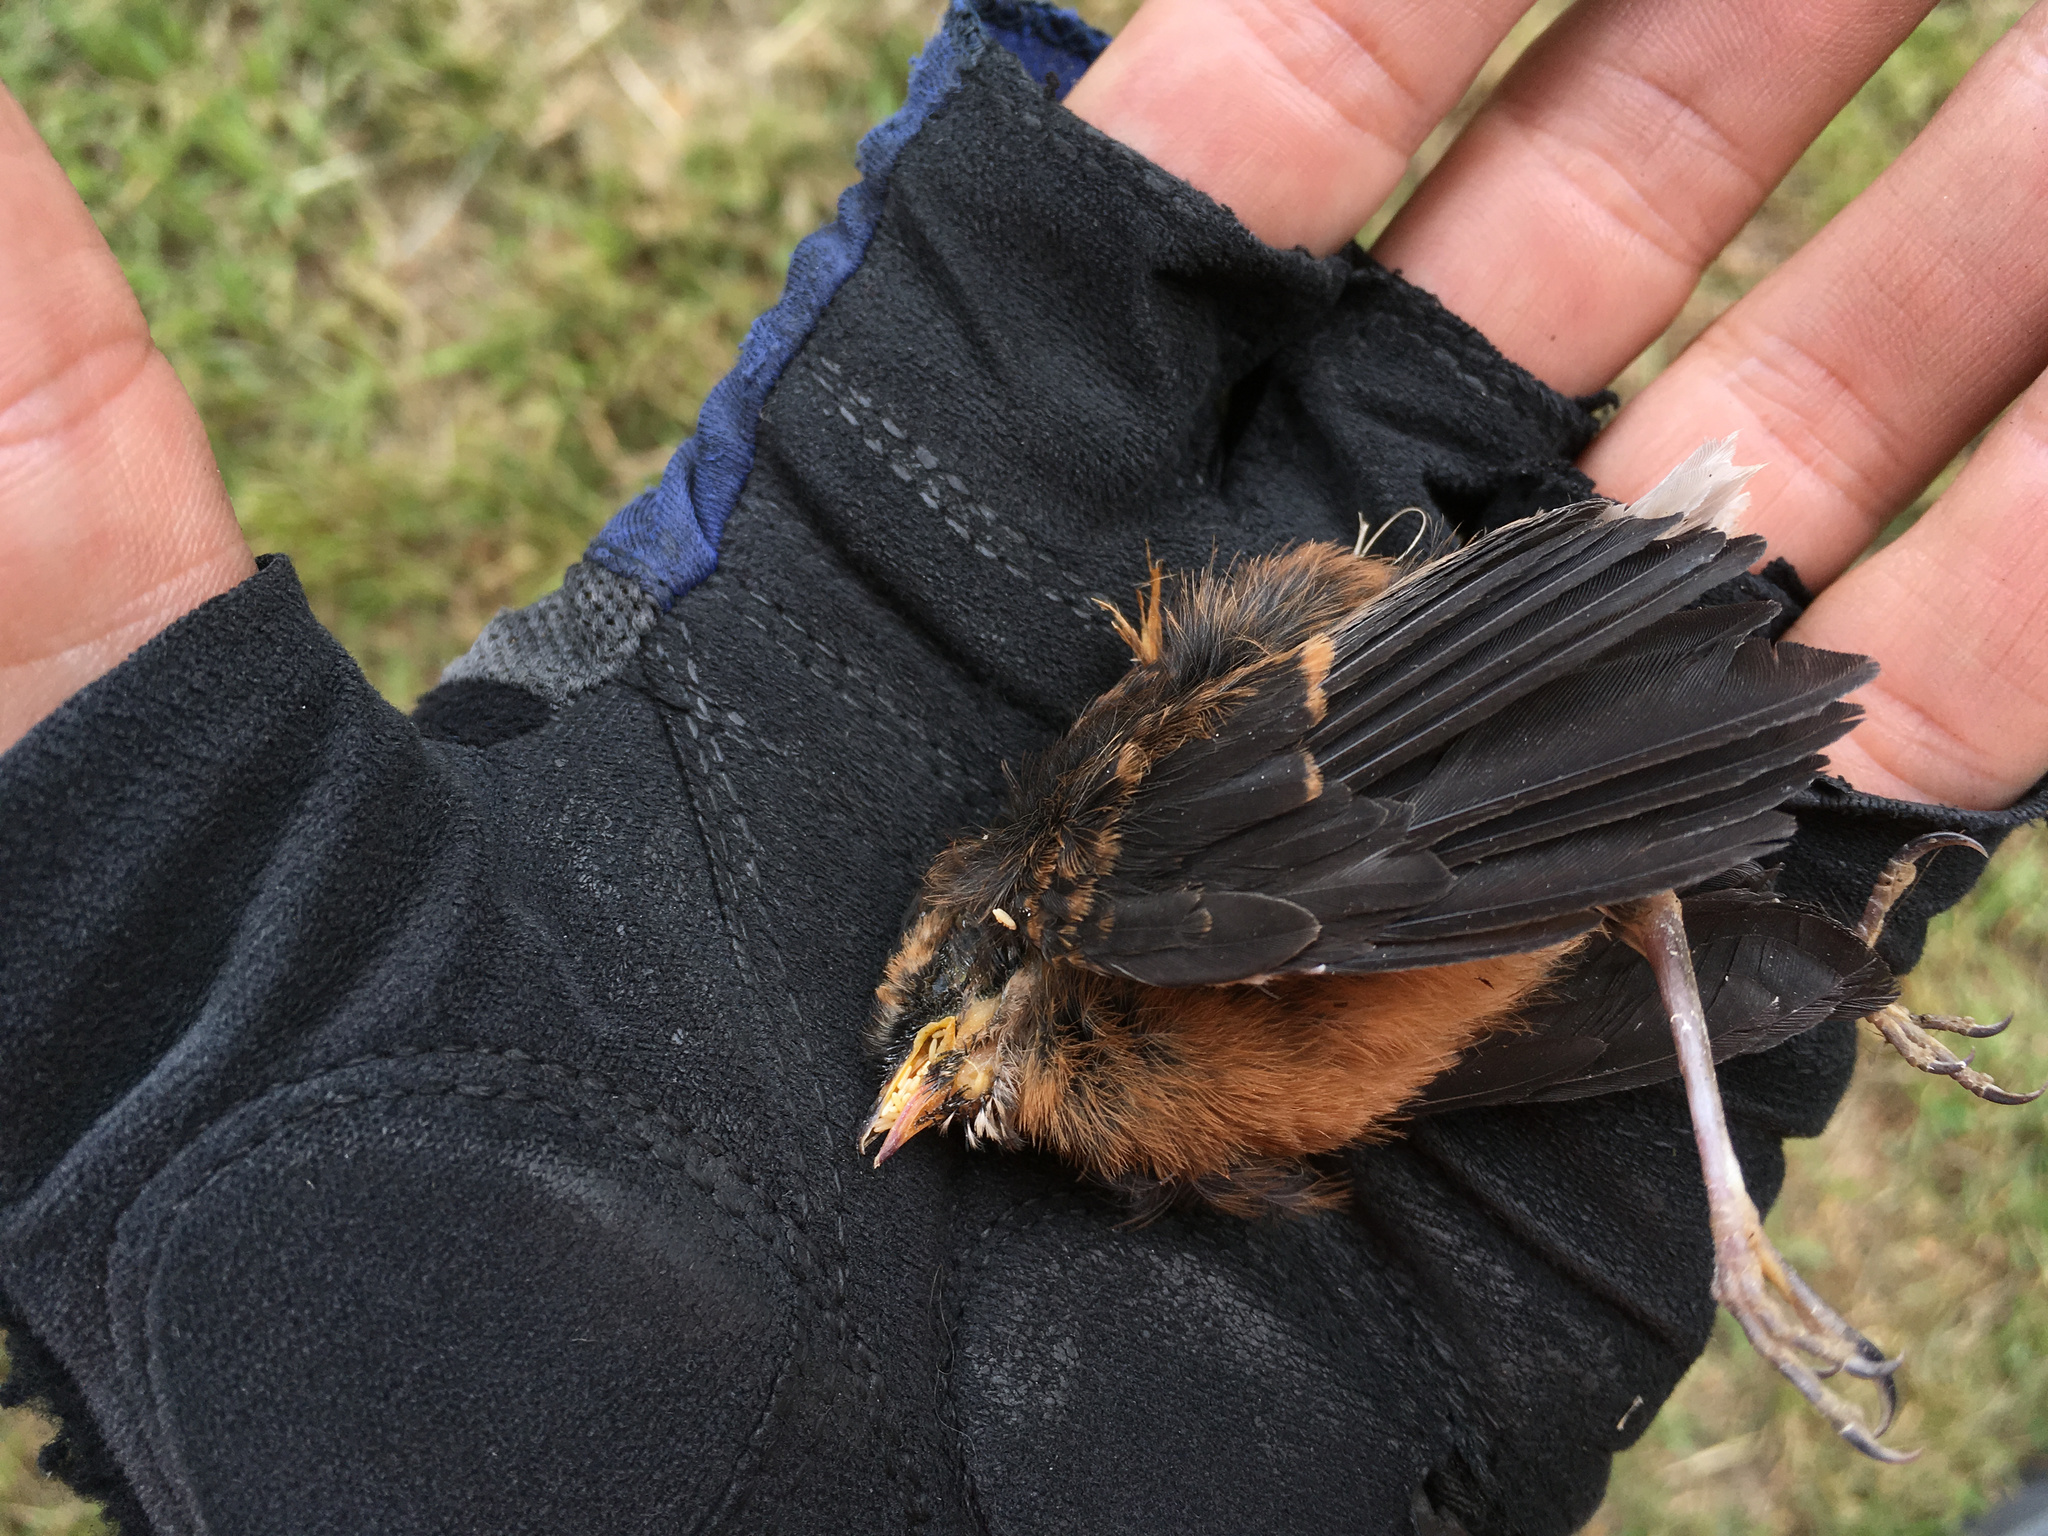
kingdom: Animalia
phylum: Chordata
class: Aves
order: Passeriformes
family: Rhipiduridae
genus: Rhipidura
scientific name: Rhipidura fuliginosa
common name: New zealand fantail
